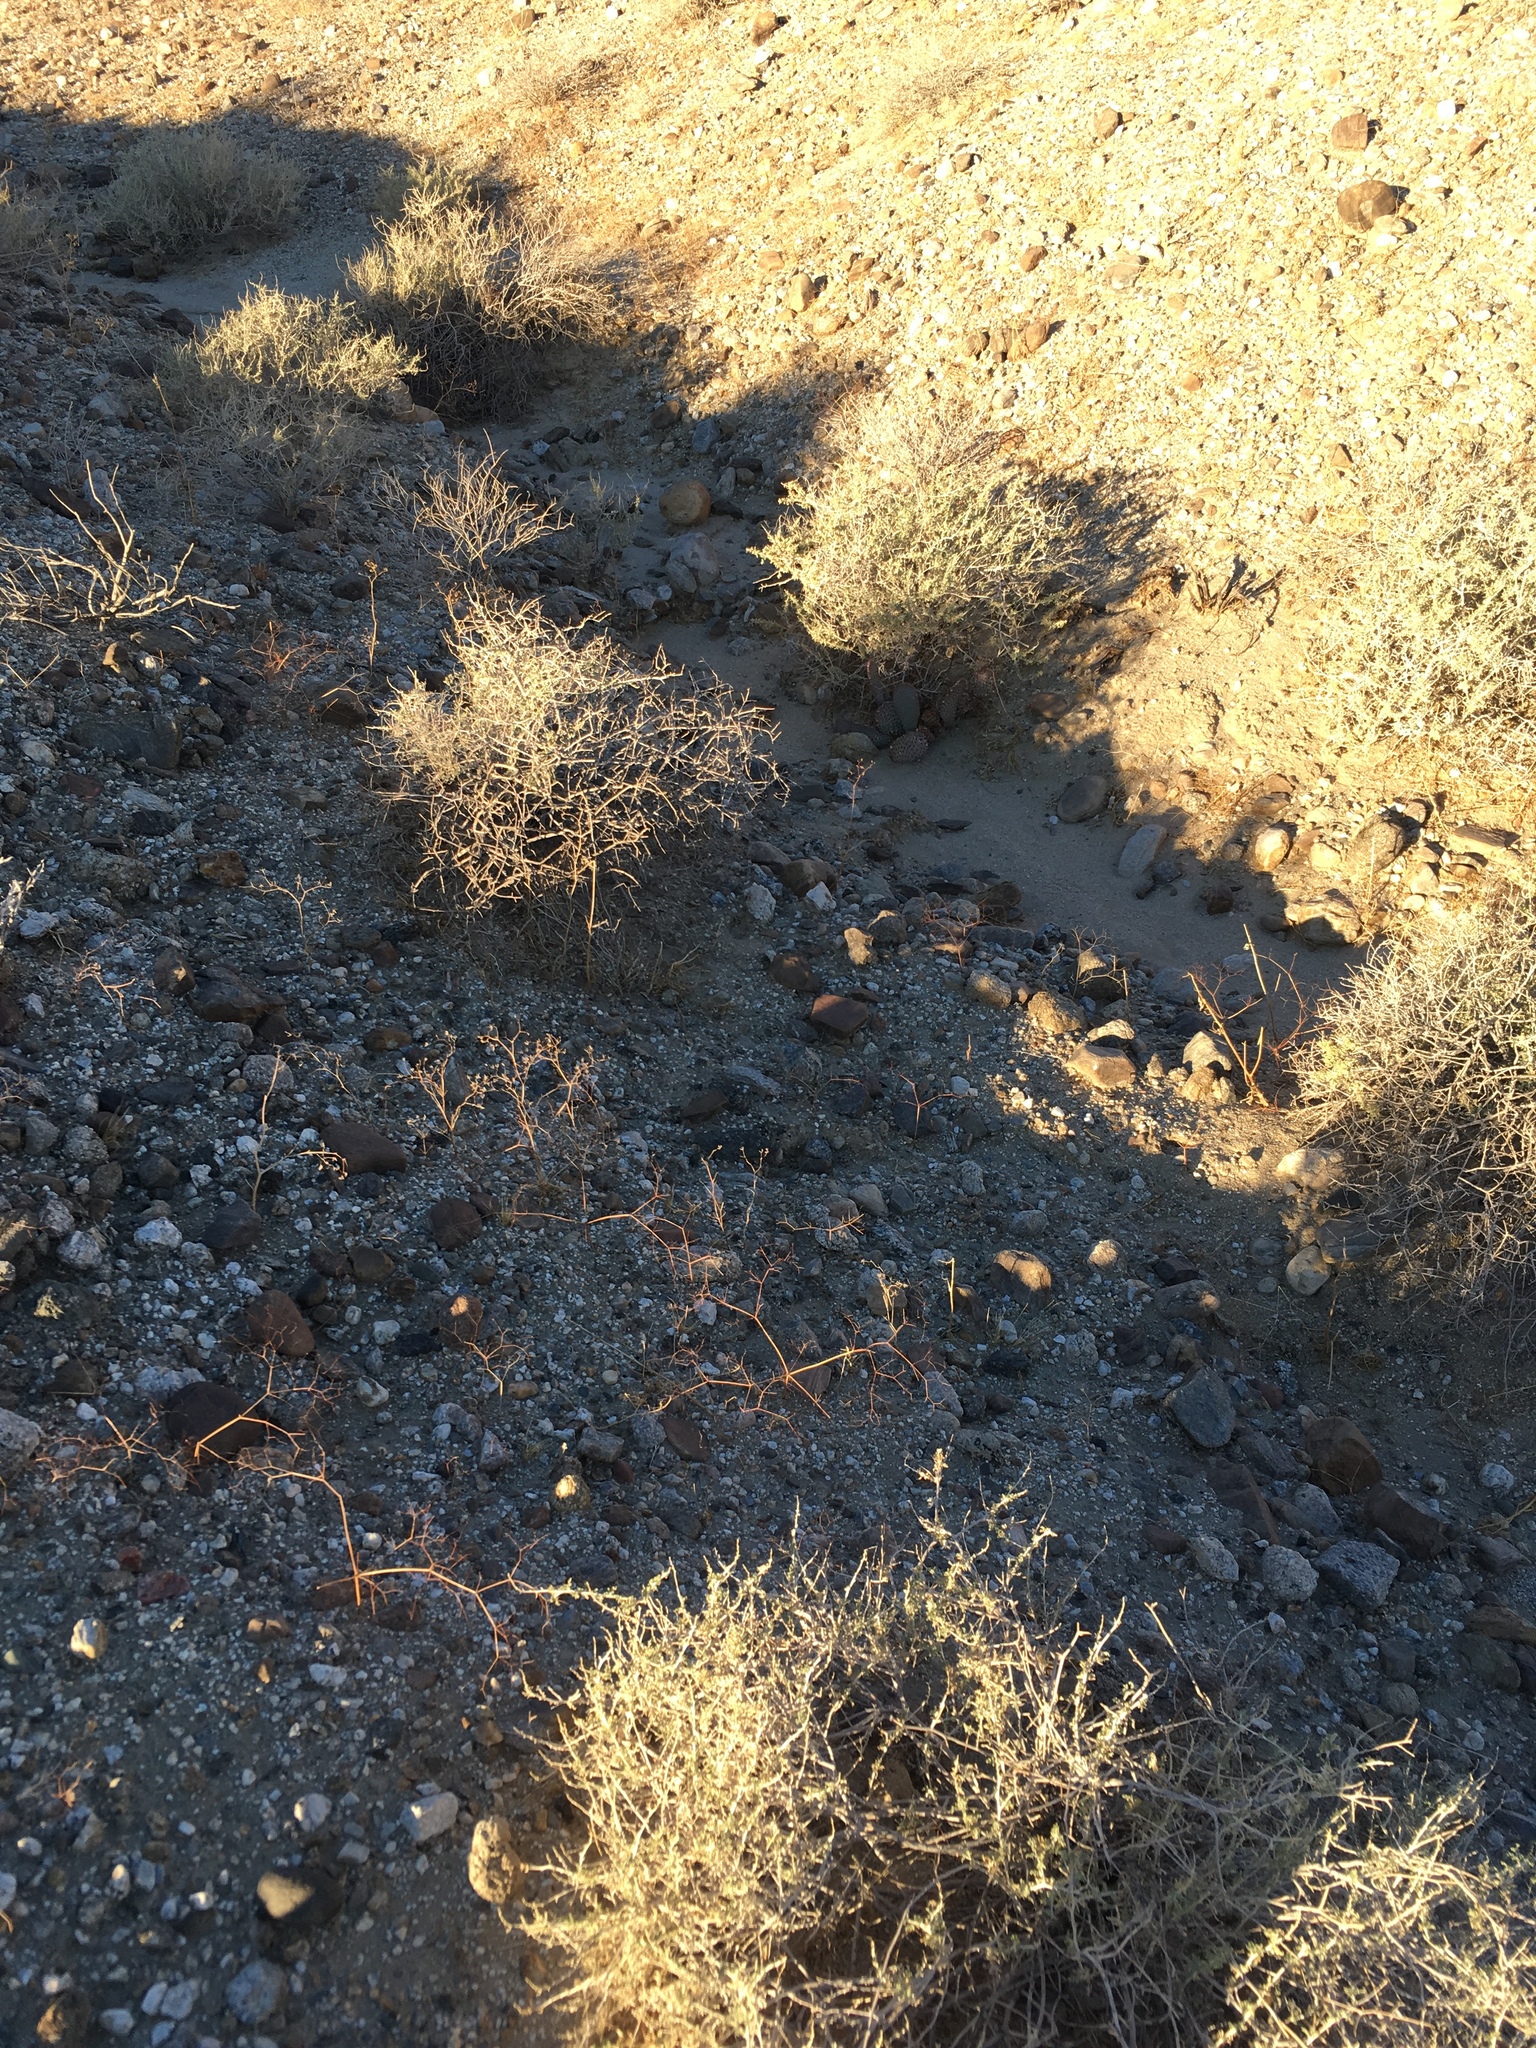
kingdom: Plantae
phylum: Tracheophyta
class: Magnoliopsida
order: Asterales
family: Asteraceae
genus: Ambrosia
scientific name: Ambrosia dumosa
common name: Bur-sage
